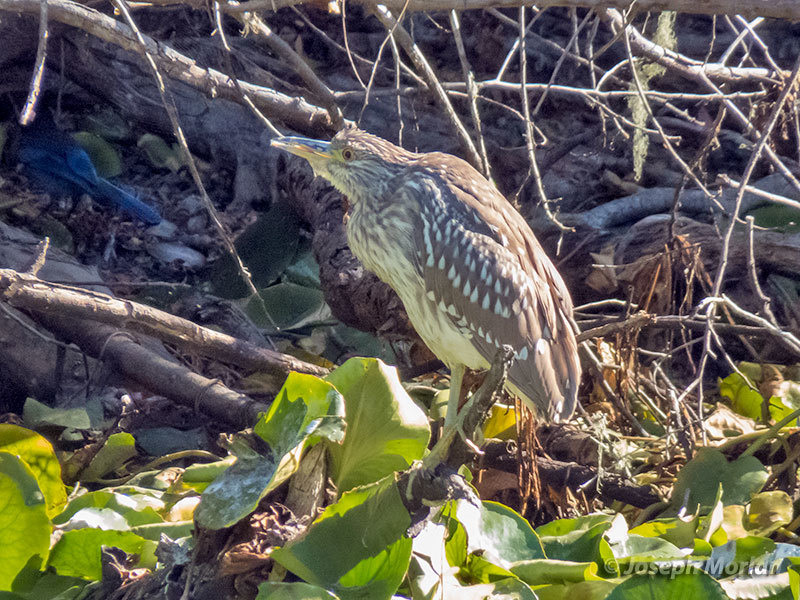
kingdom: Animalia
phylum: Chordata
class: Aves
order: Pelecaniformes
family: Ardeidae
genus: Nycticorax
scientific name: Nycticorax nycticorax
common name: Black-crowned night heron
